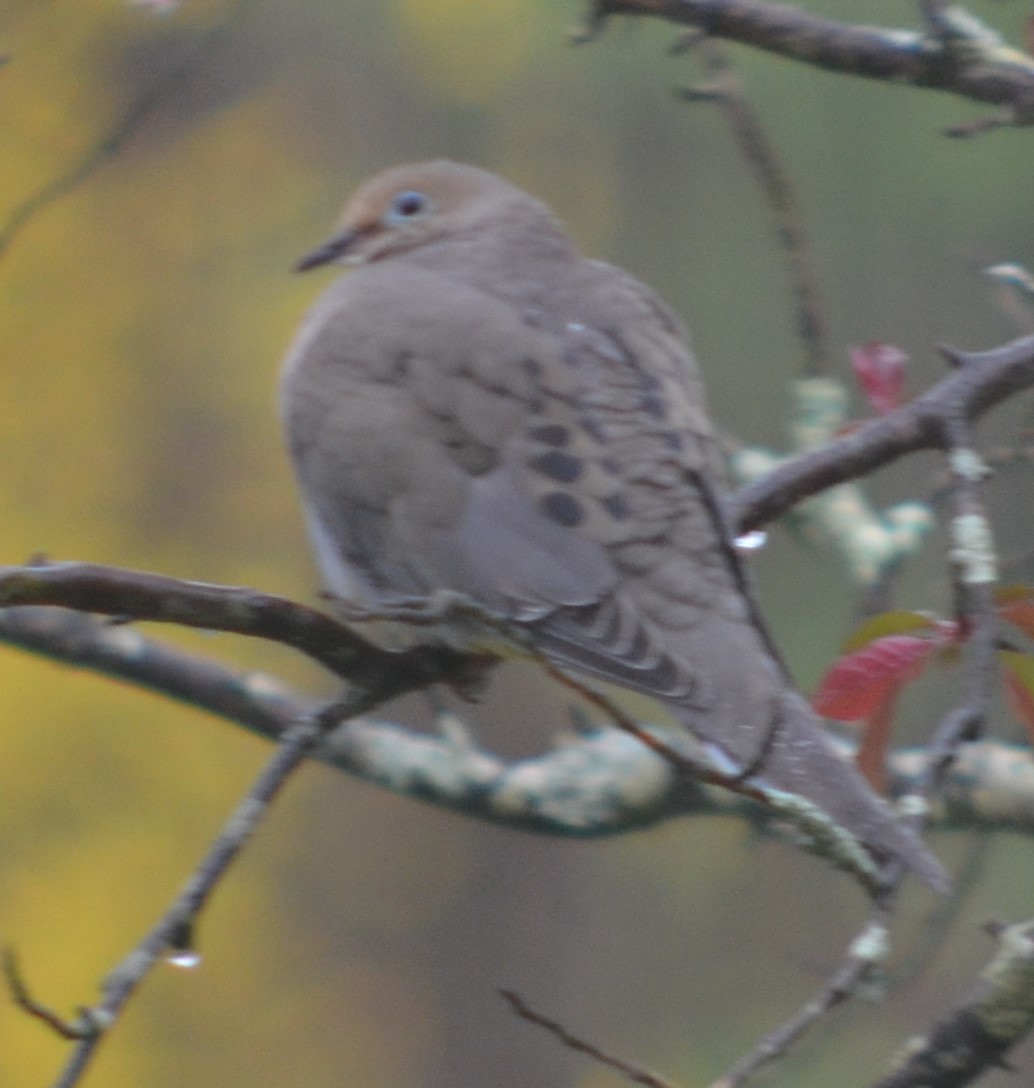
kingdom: Animalia
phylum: Chordata
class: Aves
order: Columbiformes
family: Columbidae
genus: Zenaida
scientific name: Zenaida macroura
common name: Mourning dove
